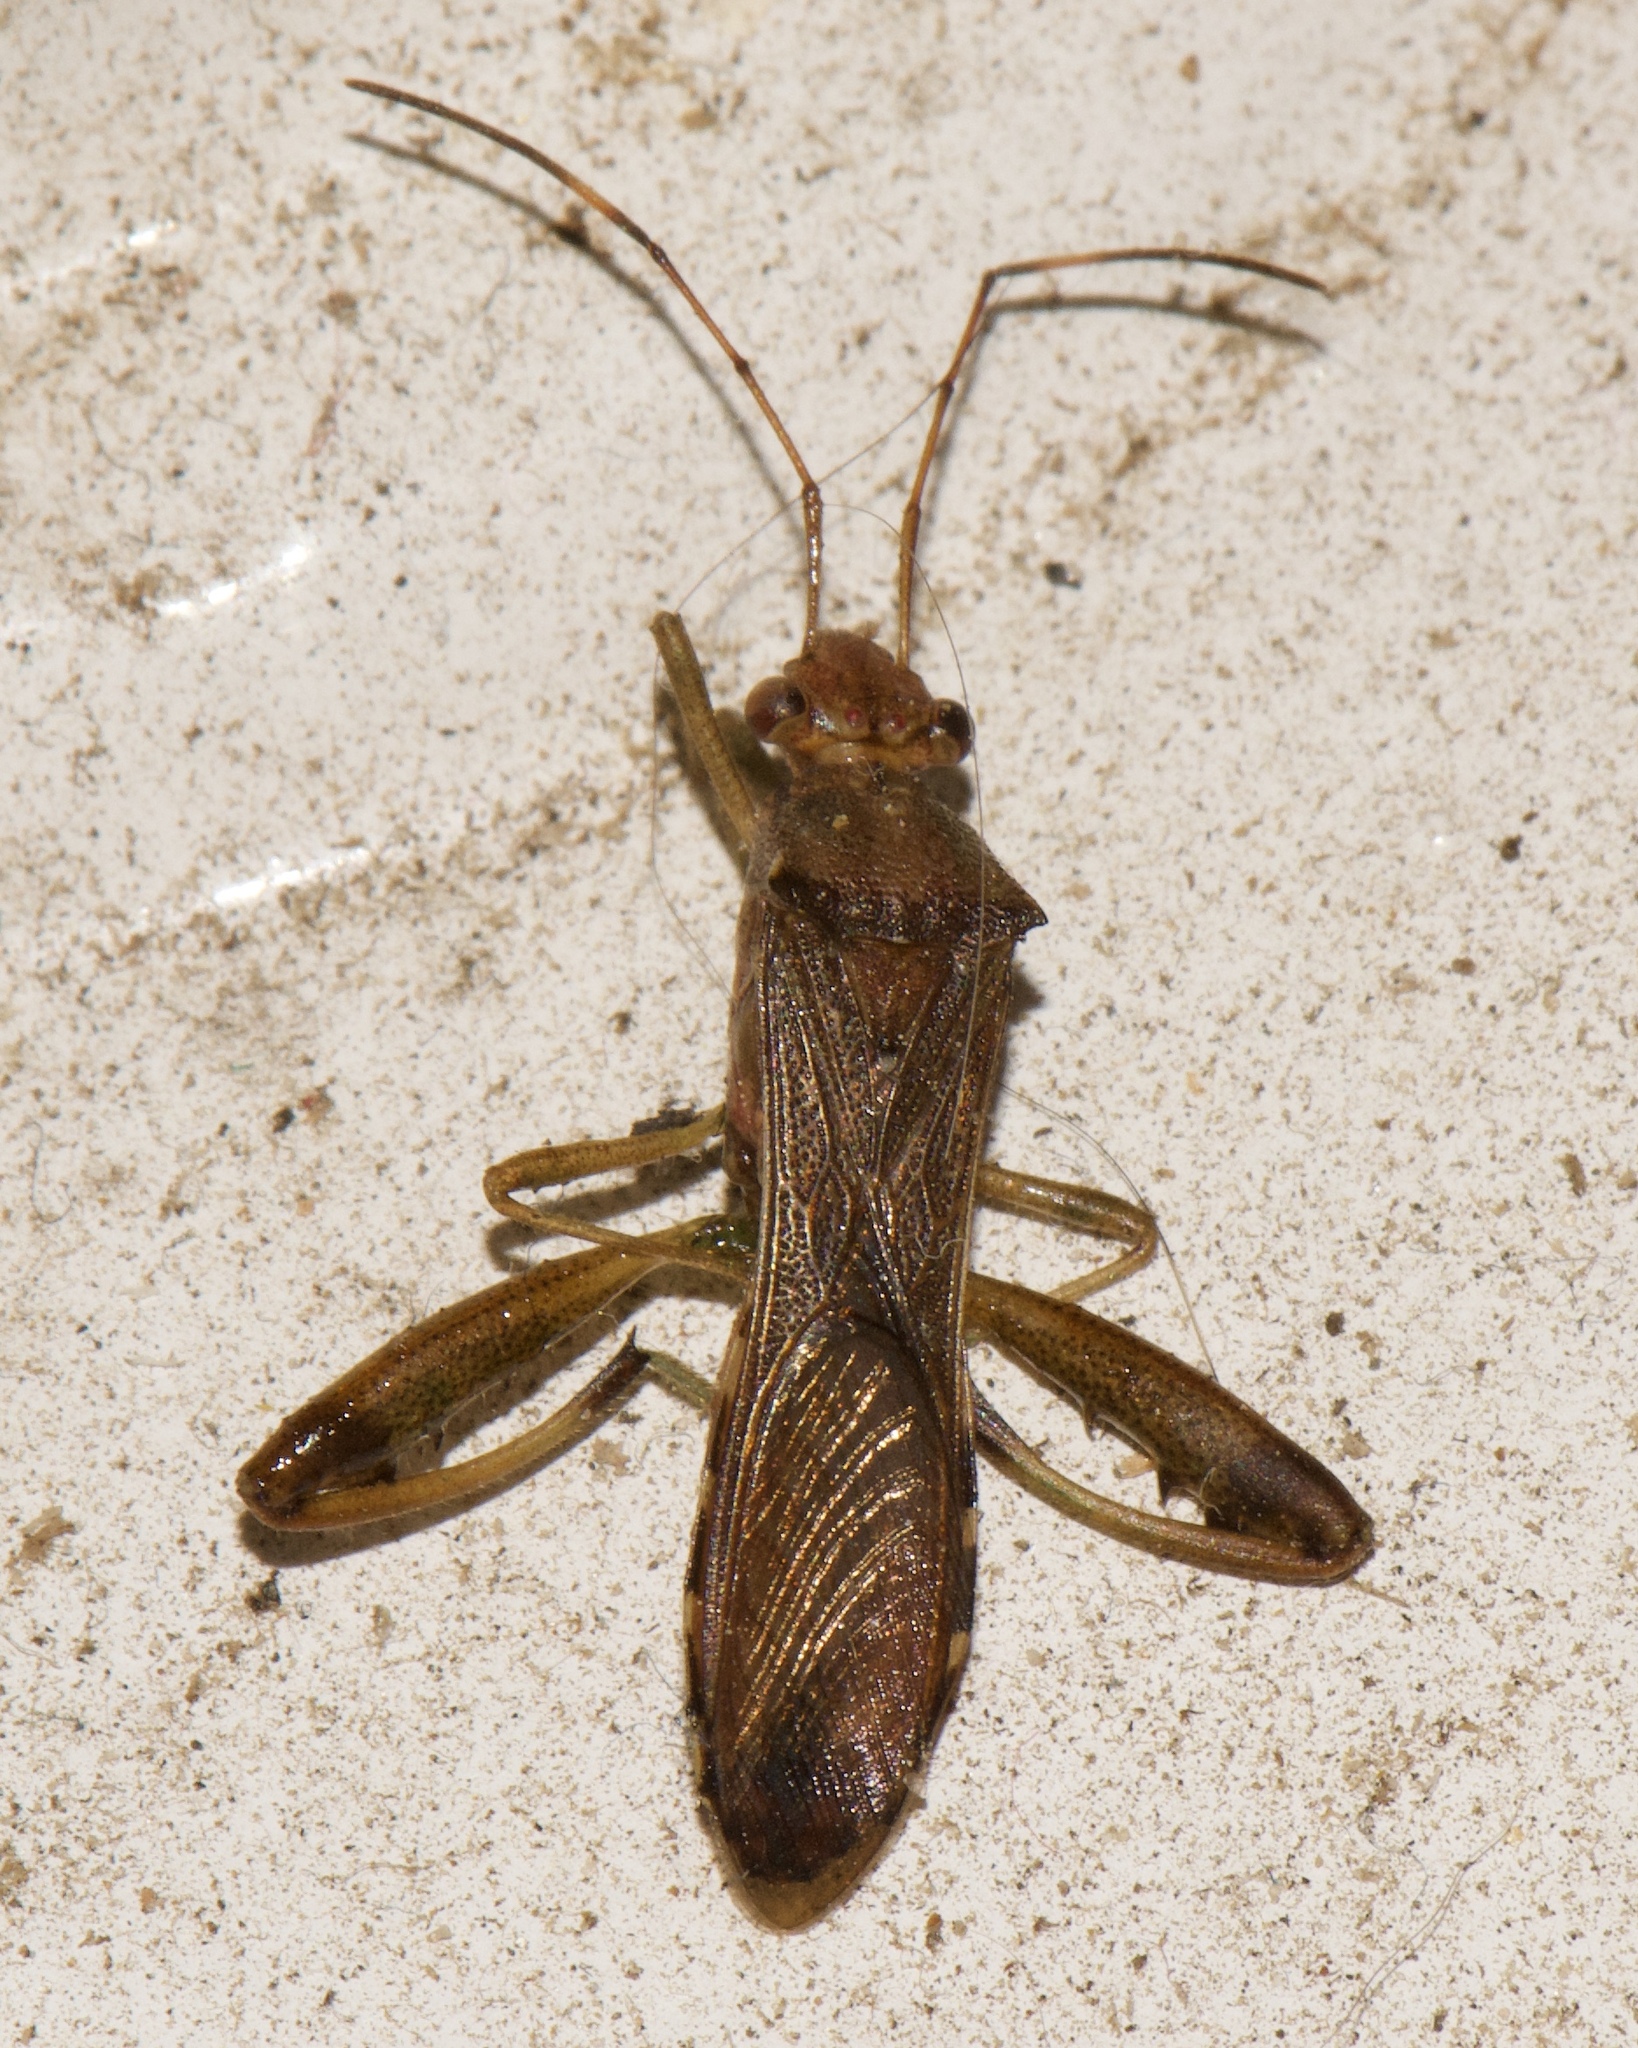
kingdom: Animalia
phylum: Arthropoda
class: Insecta
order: Hemiptera
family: Alydidae
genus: Hyalymenus
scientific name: Hyalymenus tarsatus
